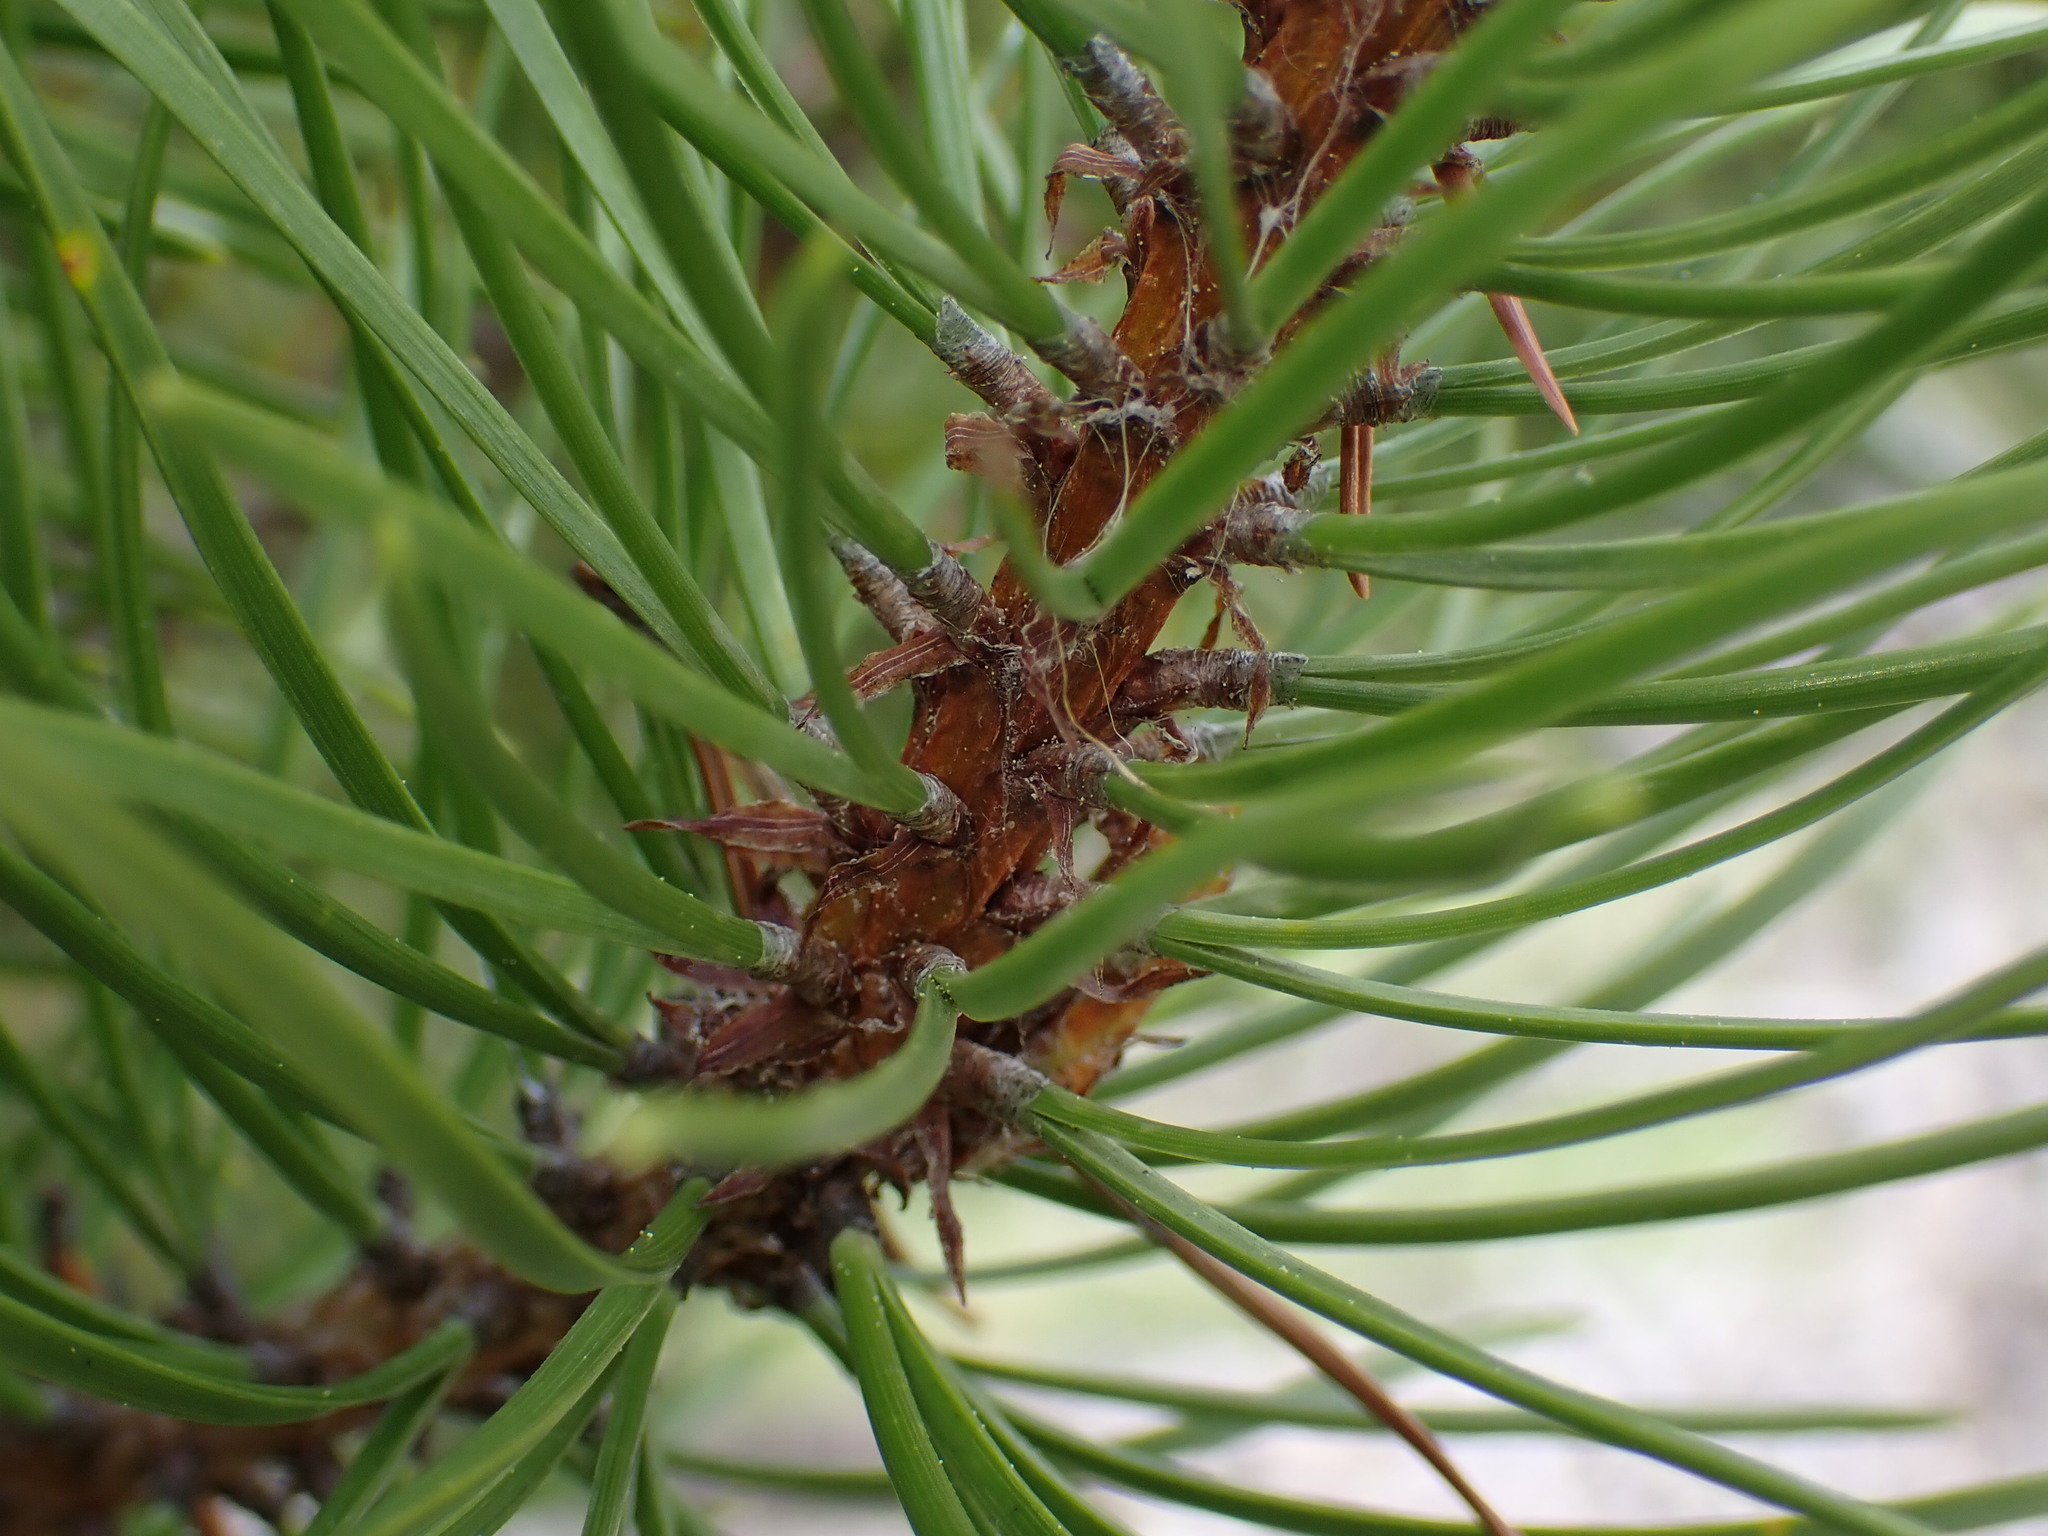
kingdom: Plantae
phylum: Tracheophyta
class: Pinopsida
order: Pinales
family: Pinaceae
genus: Pinus
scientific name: Pinus contorta
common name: Lodgepole pine
